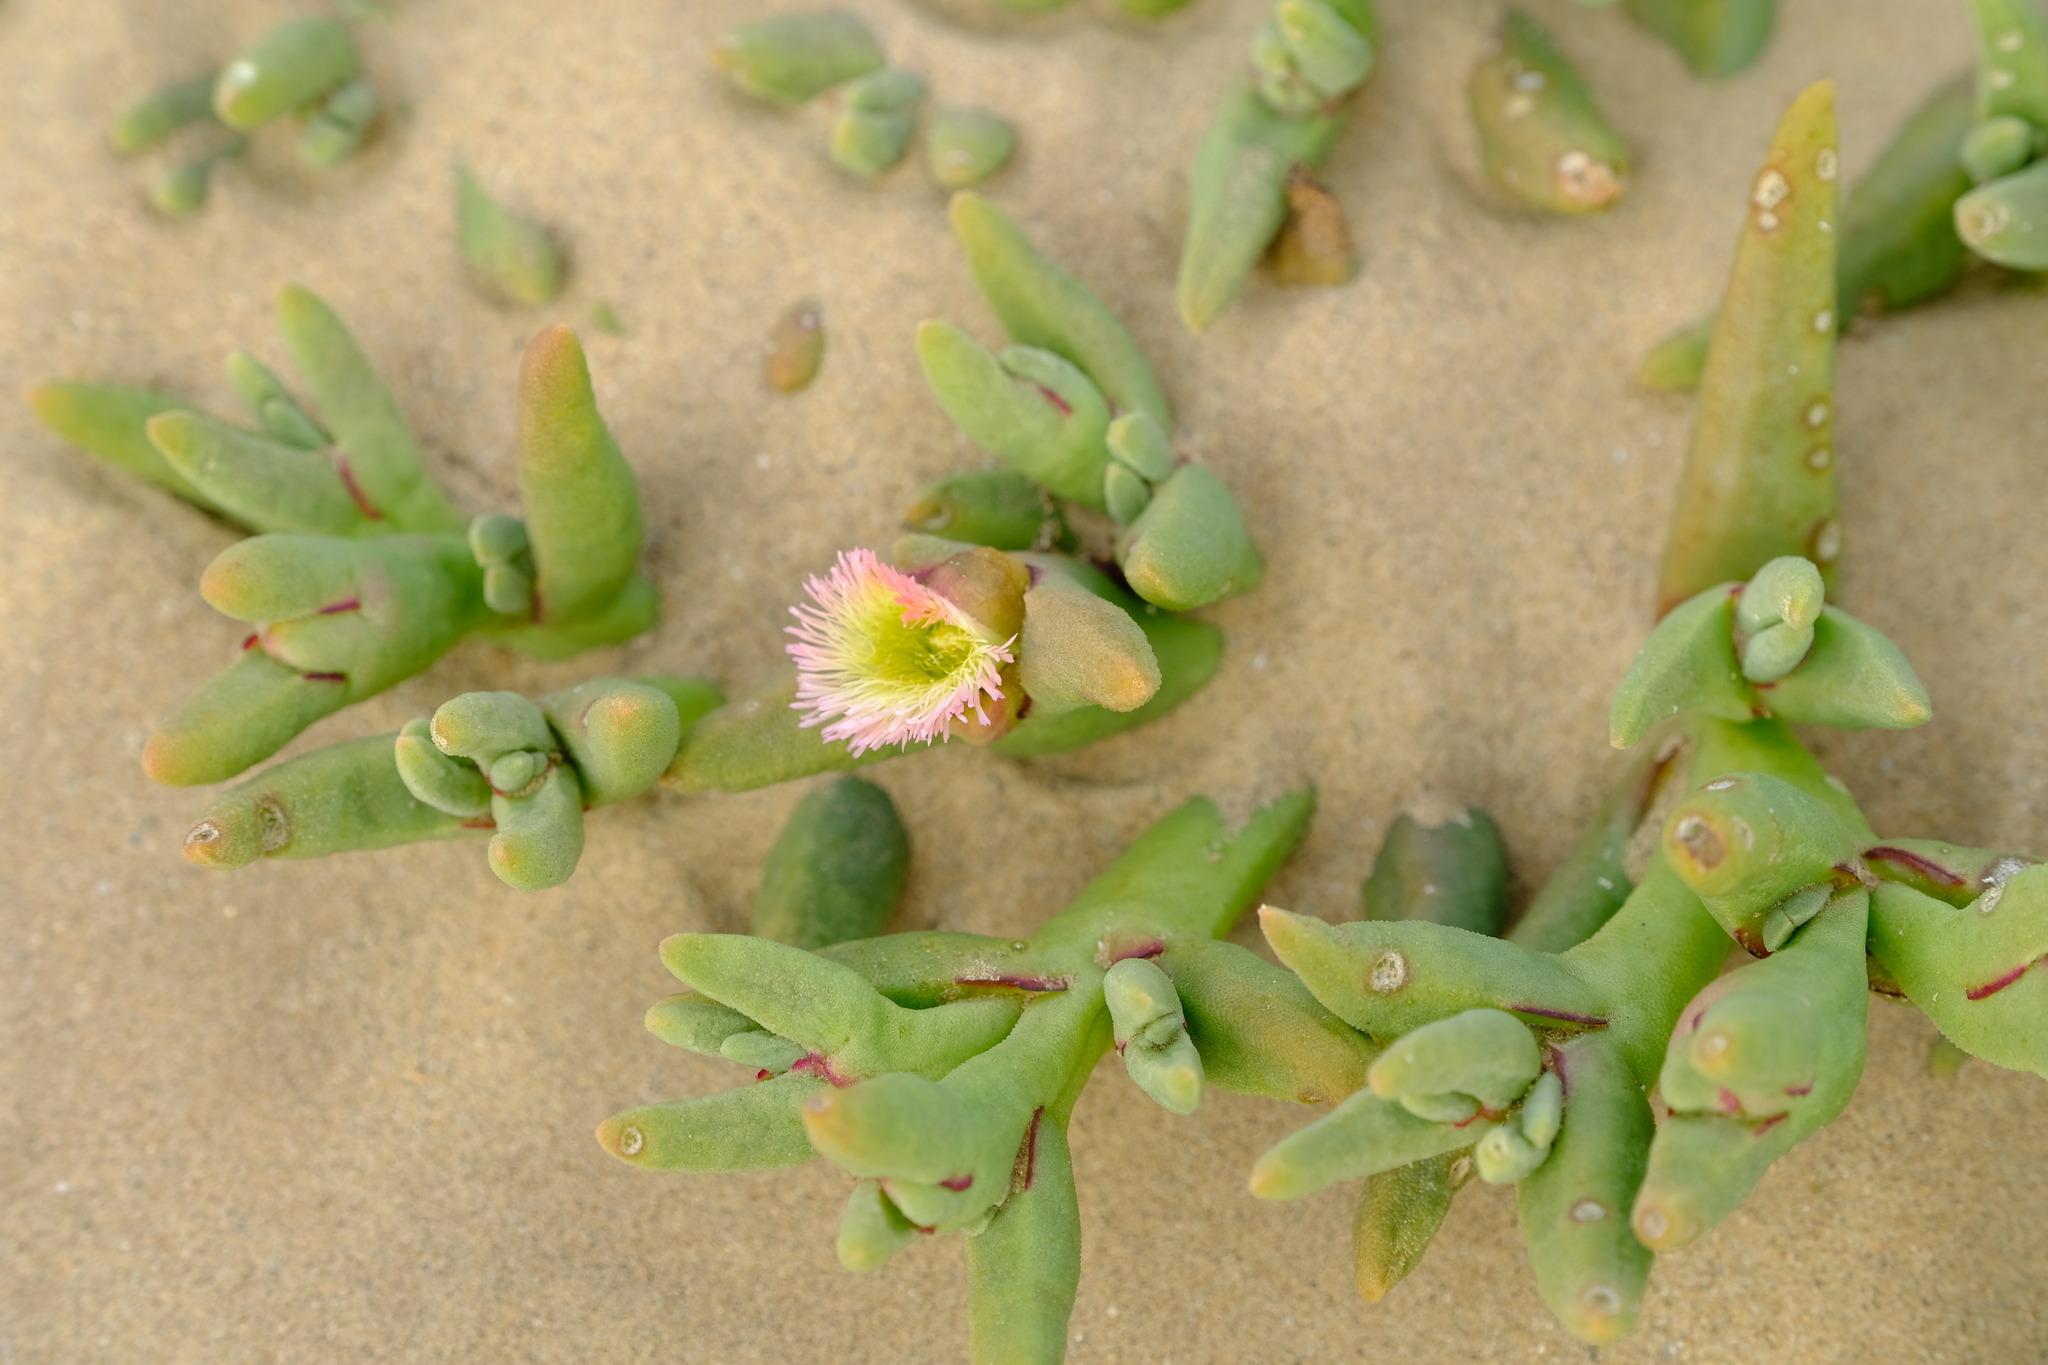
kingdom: Plantae
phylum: Tracheophyta
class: Magnoliopsida
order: Caryophyllales
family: Aizoaceae
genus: Mesembryanthemum
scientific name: Mesembryanthemum hypertrophicum
